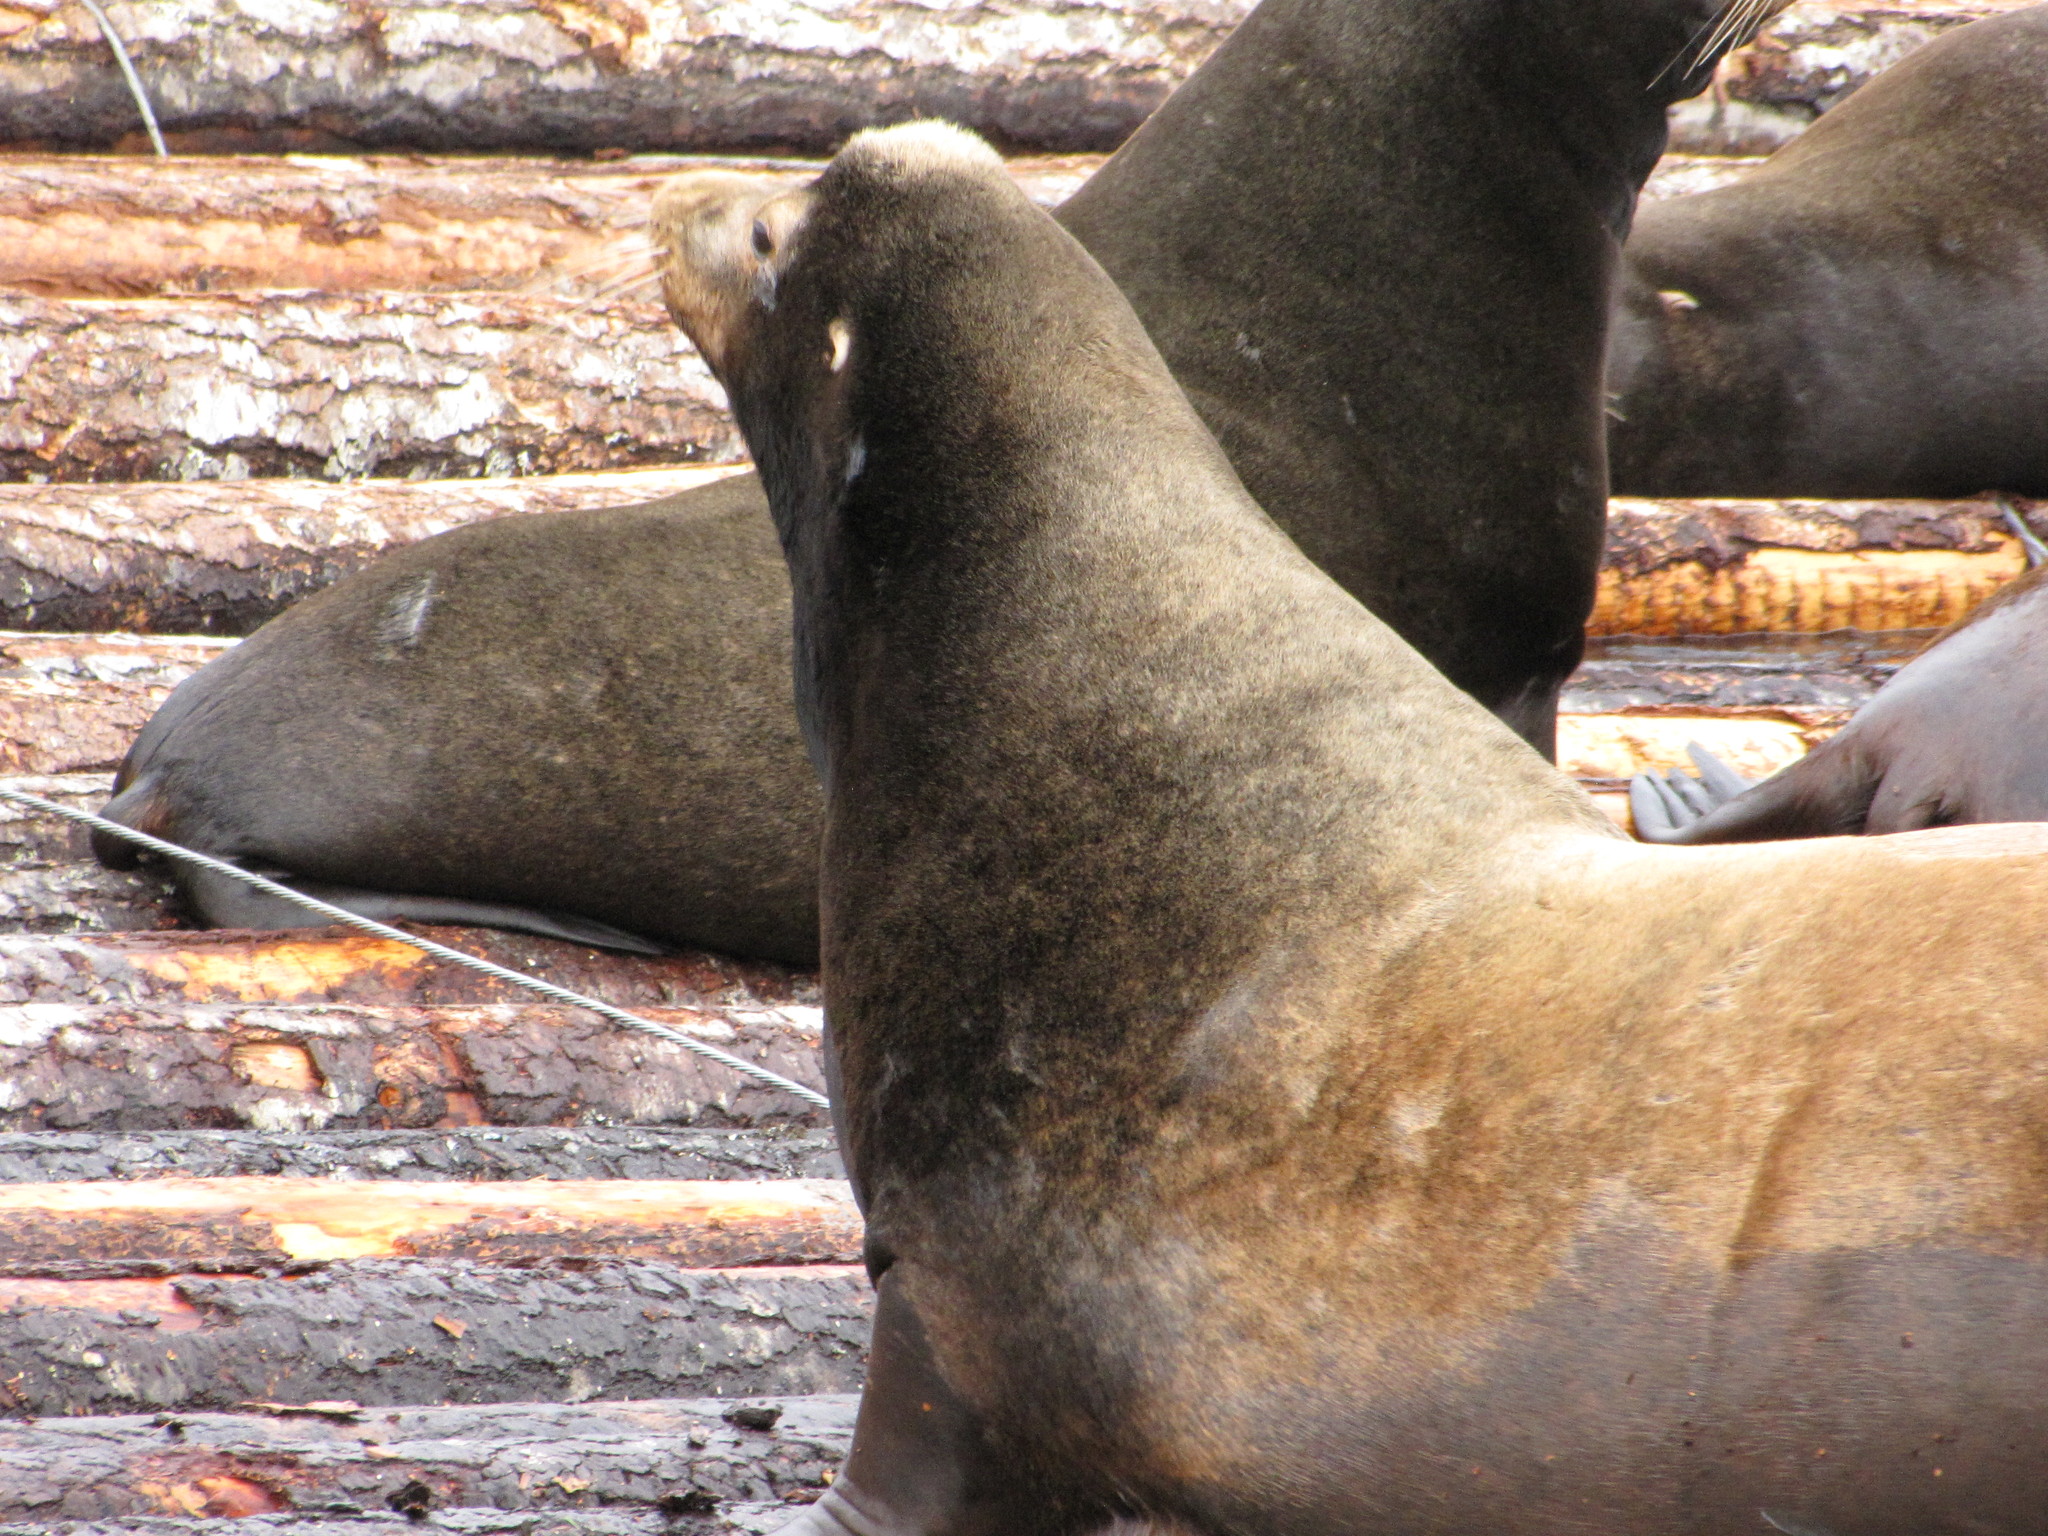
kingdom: Animalia
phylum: Chordata
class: Mammalia
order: Carnivora
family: Otariidae
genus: Zalophus
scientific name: Zalophus californianus
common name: California sea lion
